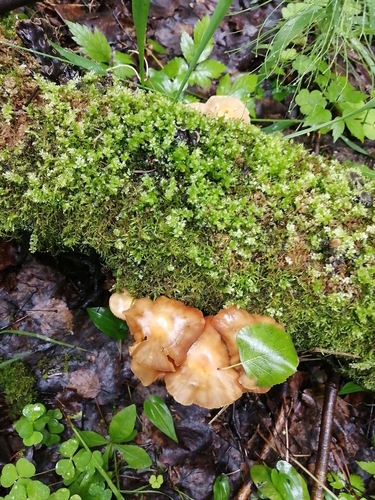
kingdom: Fungi
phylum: Basidiomycota
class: Agaricomycetes
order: Agaricales
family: Strophariaceae
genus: Kuehneromyces
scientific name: Kuehneromyces mutabilis
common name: Sheathed woodtuft
